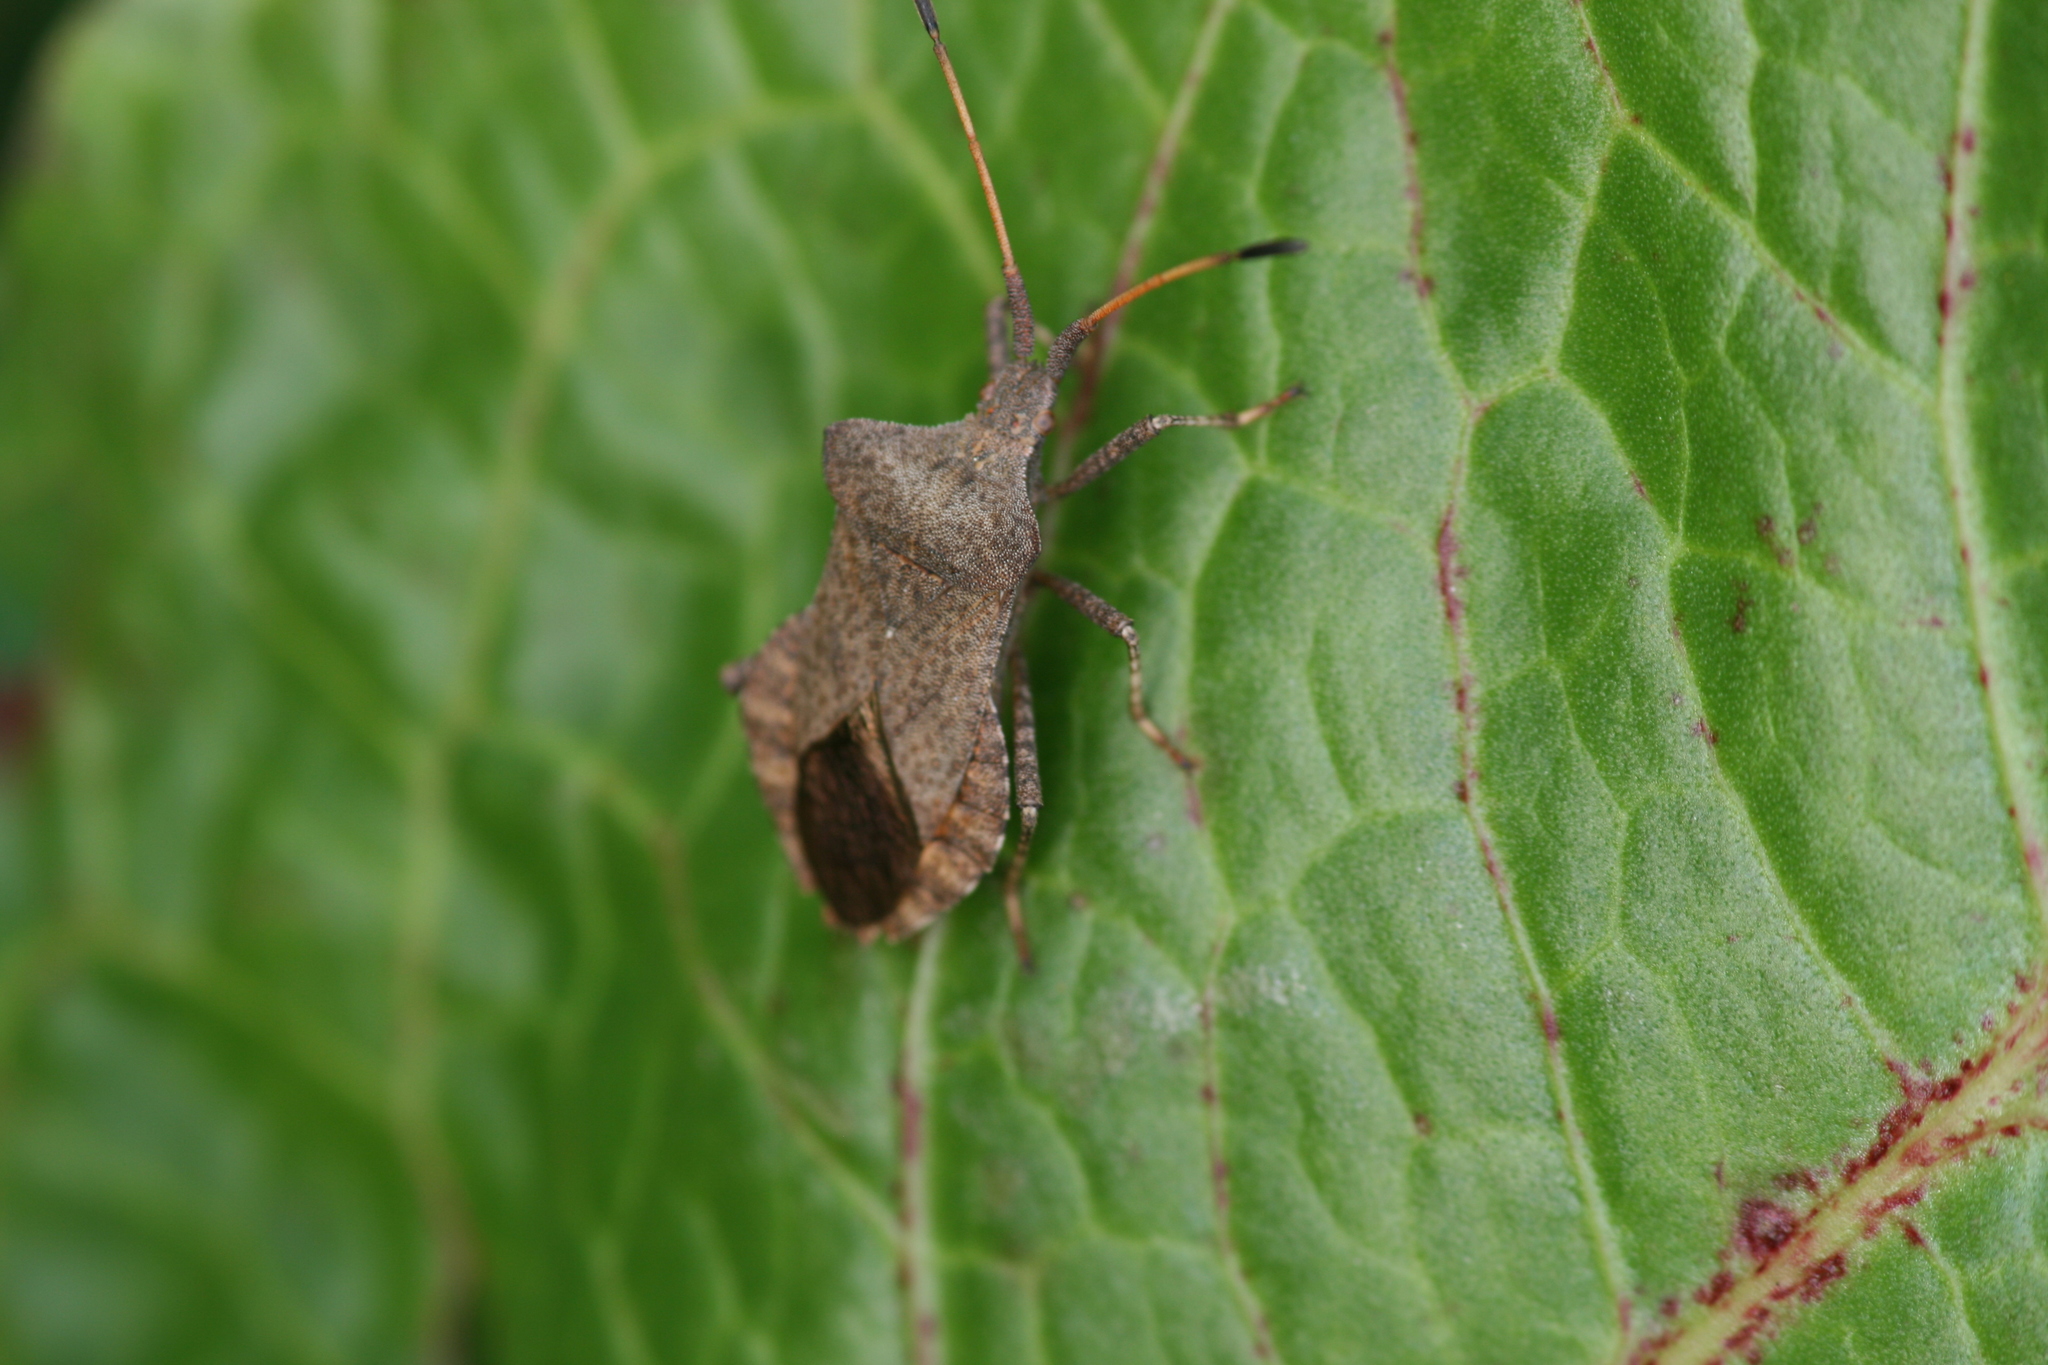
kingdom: Animalia
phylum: Arthropoda
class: Insecta
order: Hemiptera
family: Coreidae
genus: Coreus
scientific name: Coreus marginatus
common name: Dock bug
